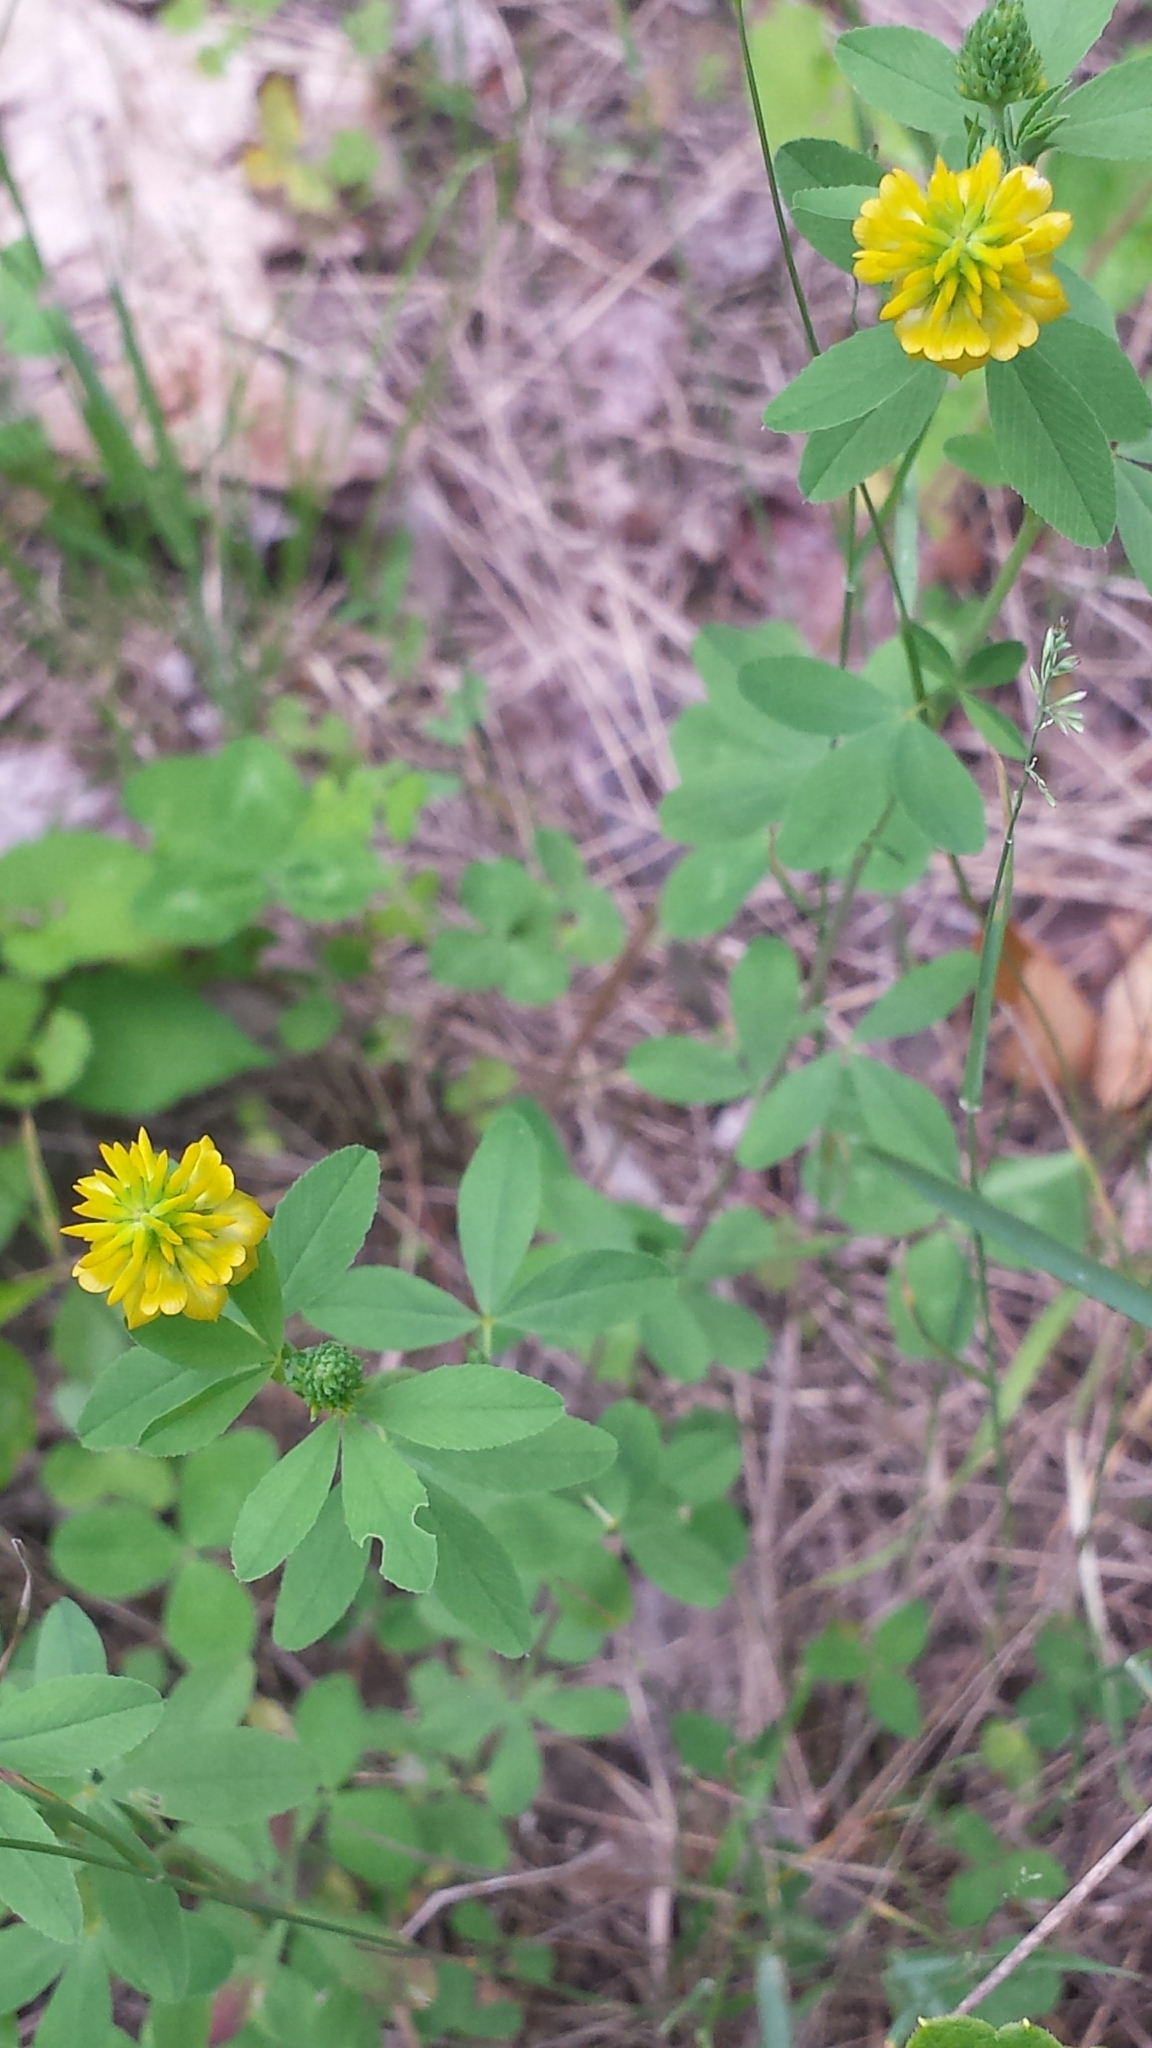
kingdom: Plantae
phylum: Tracheophyta
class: Magnoliopsida
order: Fabales
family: Fabaceae
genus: Trifolium
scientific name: Trifolium aureum
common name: Golden clover
